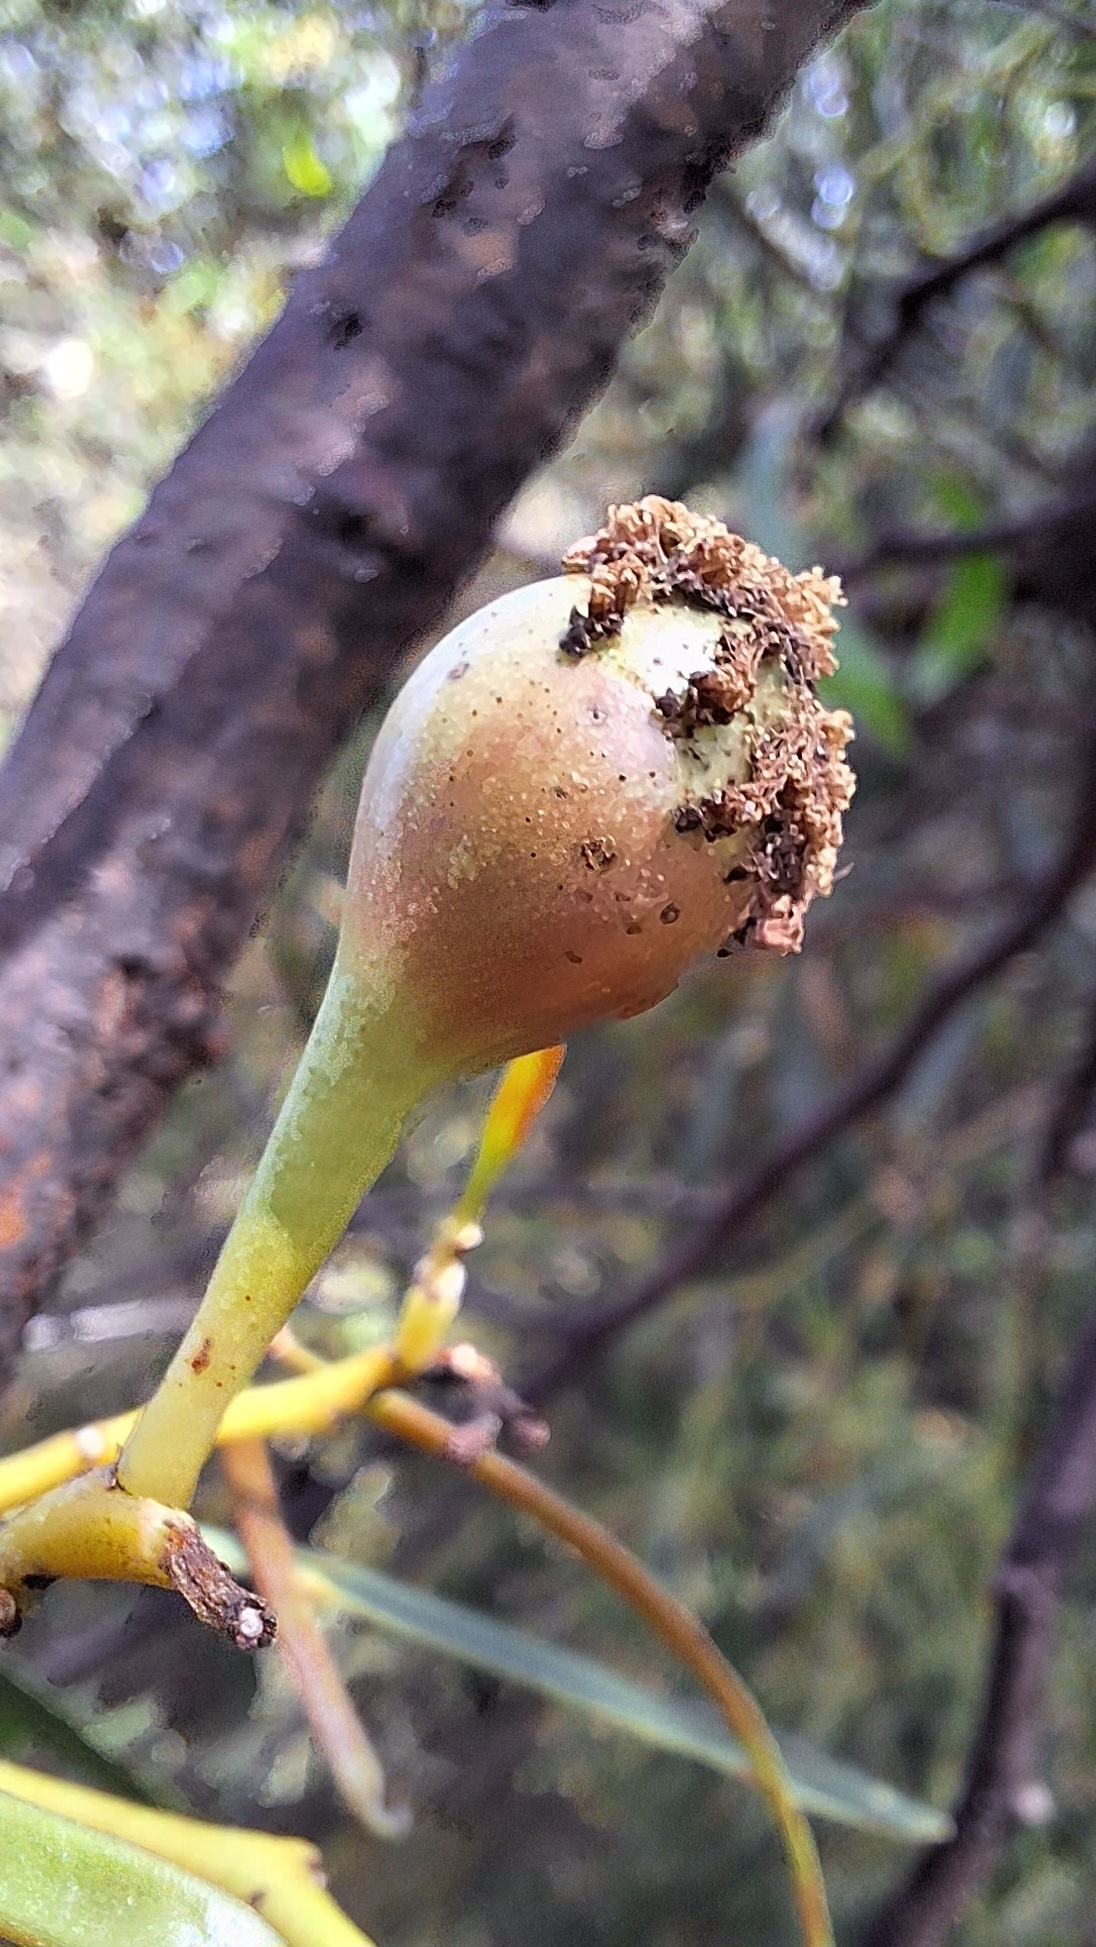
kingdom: Animalia
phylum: Arthropoda
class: Insecta
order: Hymenoptera
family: Pteromalidae
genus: Trichilogaster
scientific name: Trichilogaster signiventris
